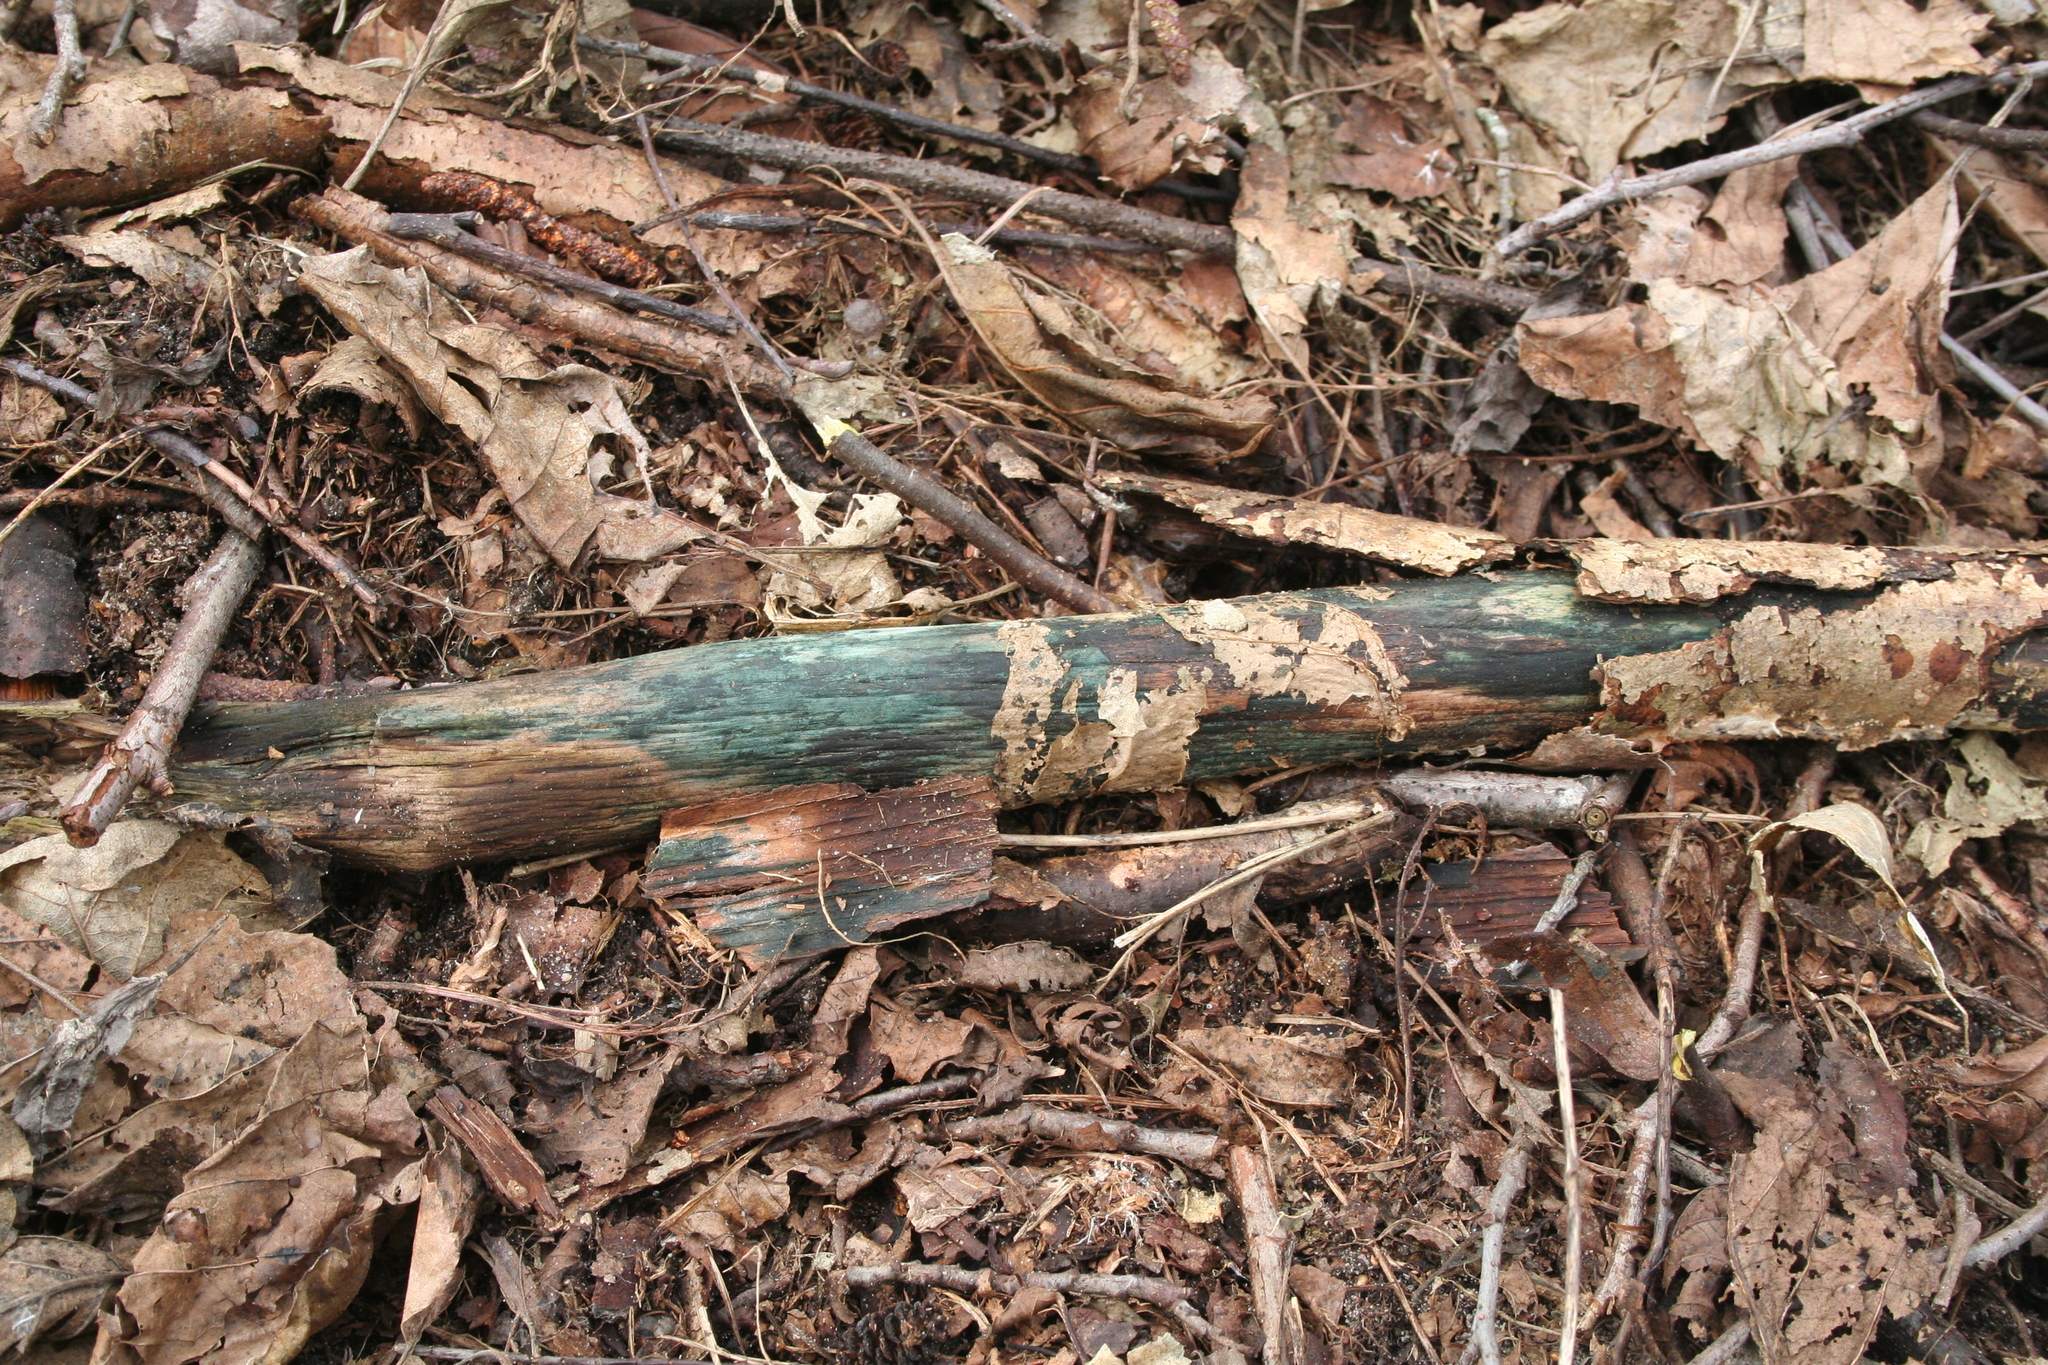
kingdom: Fungi
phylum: Ascomycota
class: Leotiomycetes
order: Helotiales
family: Chlorociboriaceae
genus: Chlorociboria
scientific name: Chlorociboria
